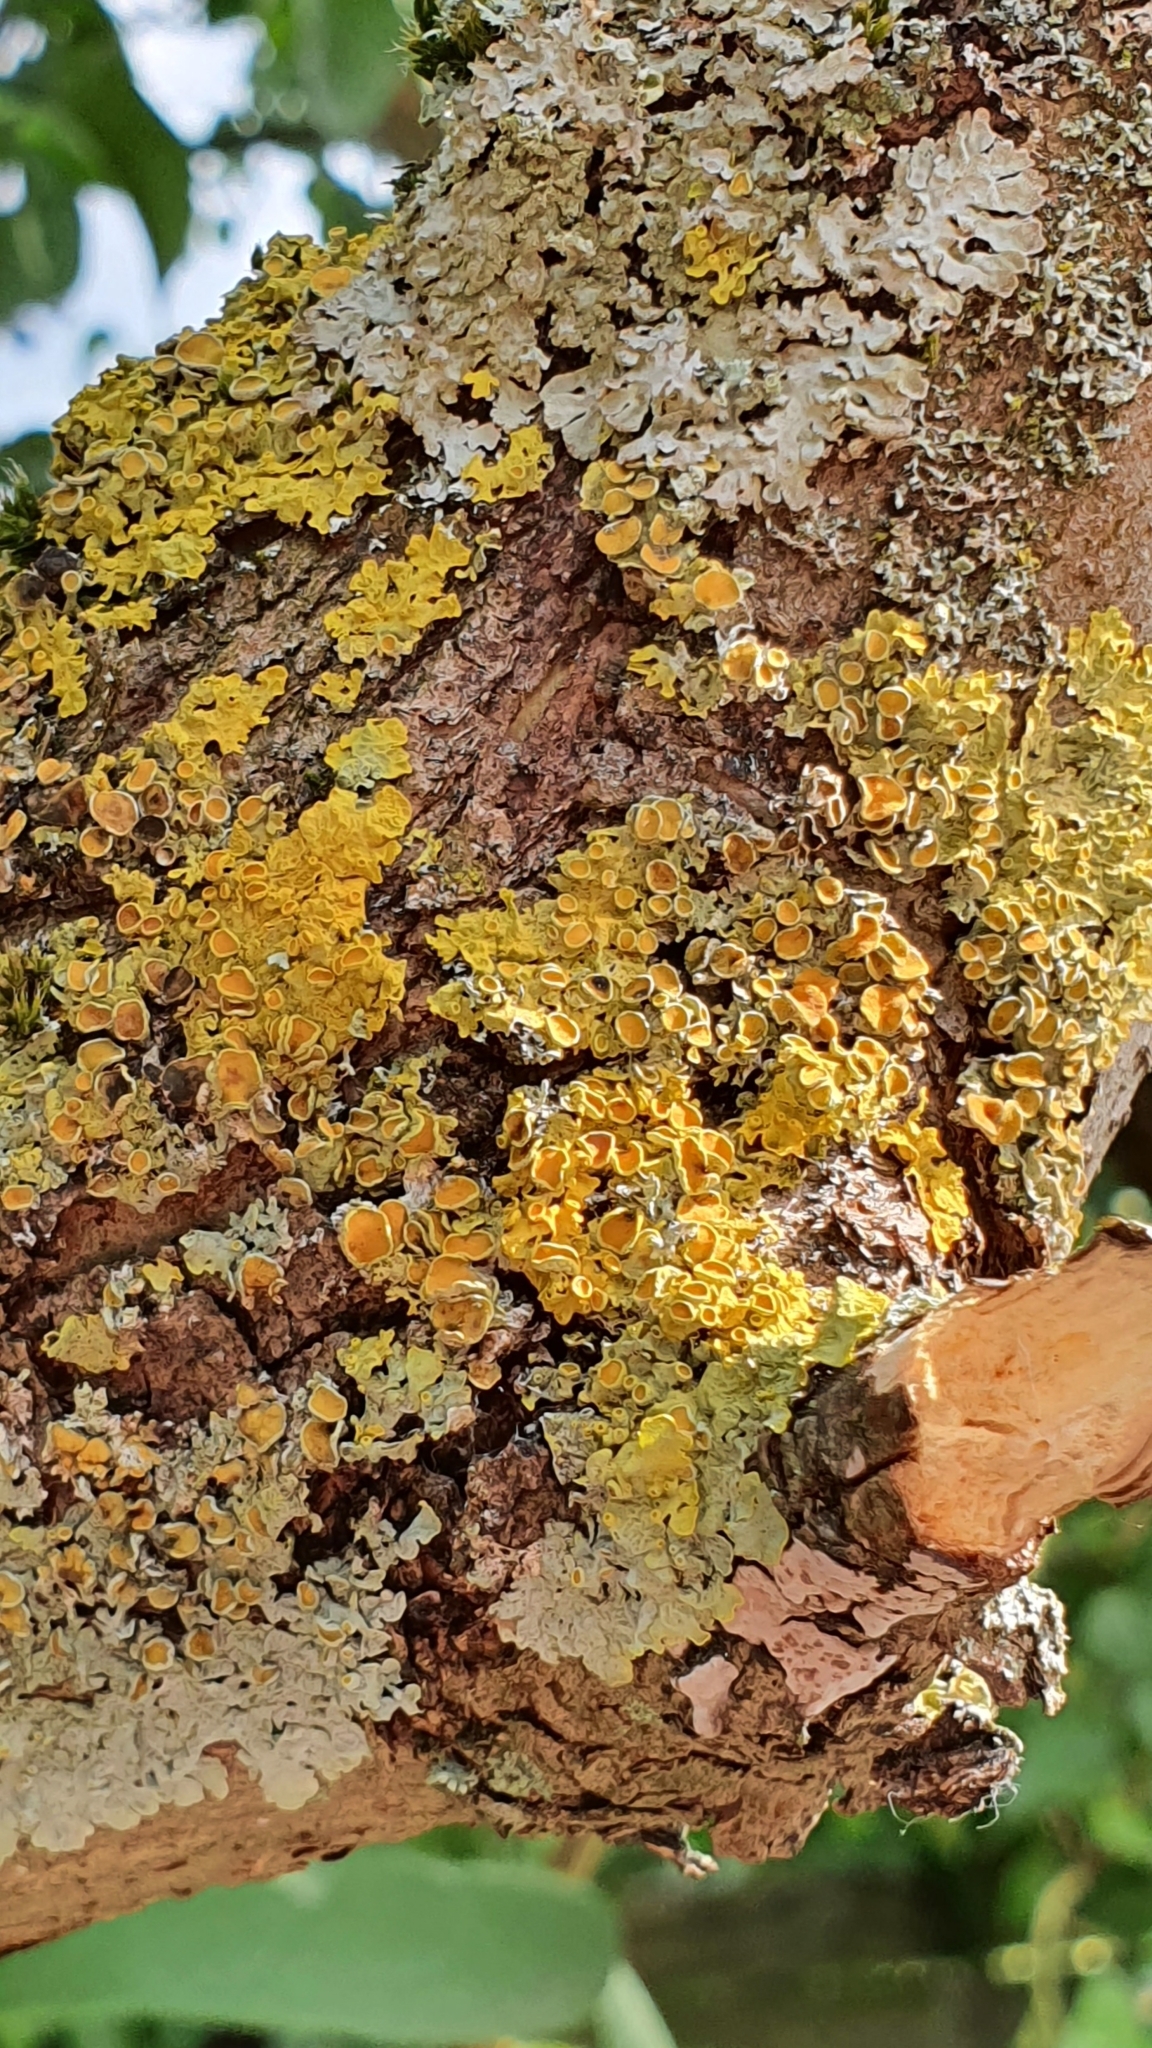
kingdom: Fungi
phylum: Ascomycota
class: Lecanoromycetes
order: Teloschistales
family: Teloschistaceae
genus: Xanthoria
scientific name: Xanthoria parietina
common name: Common orange lichen
